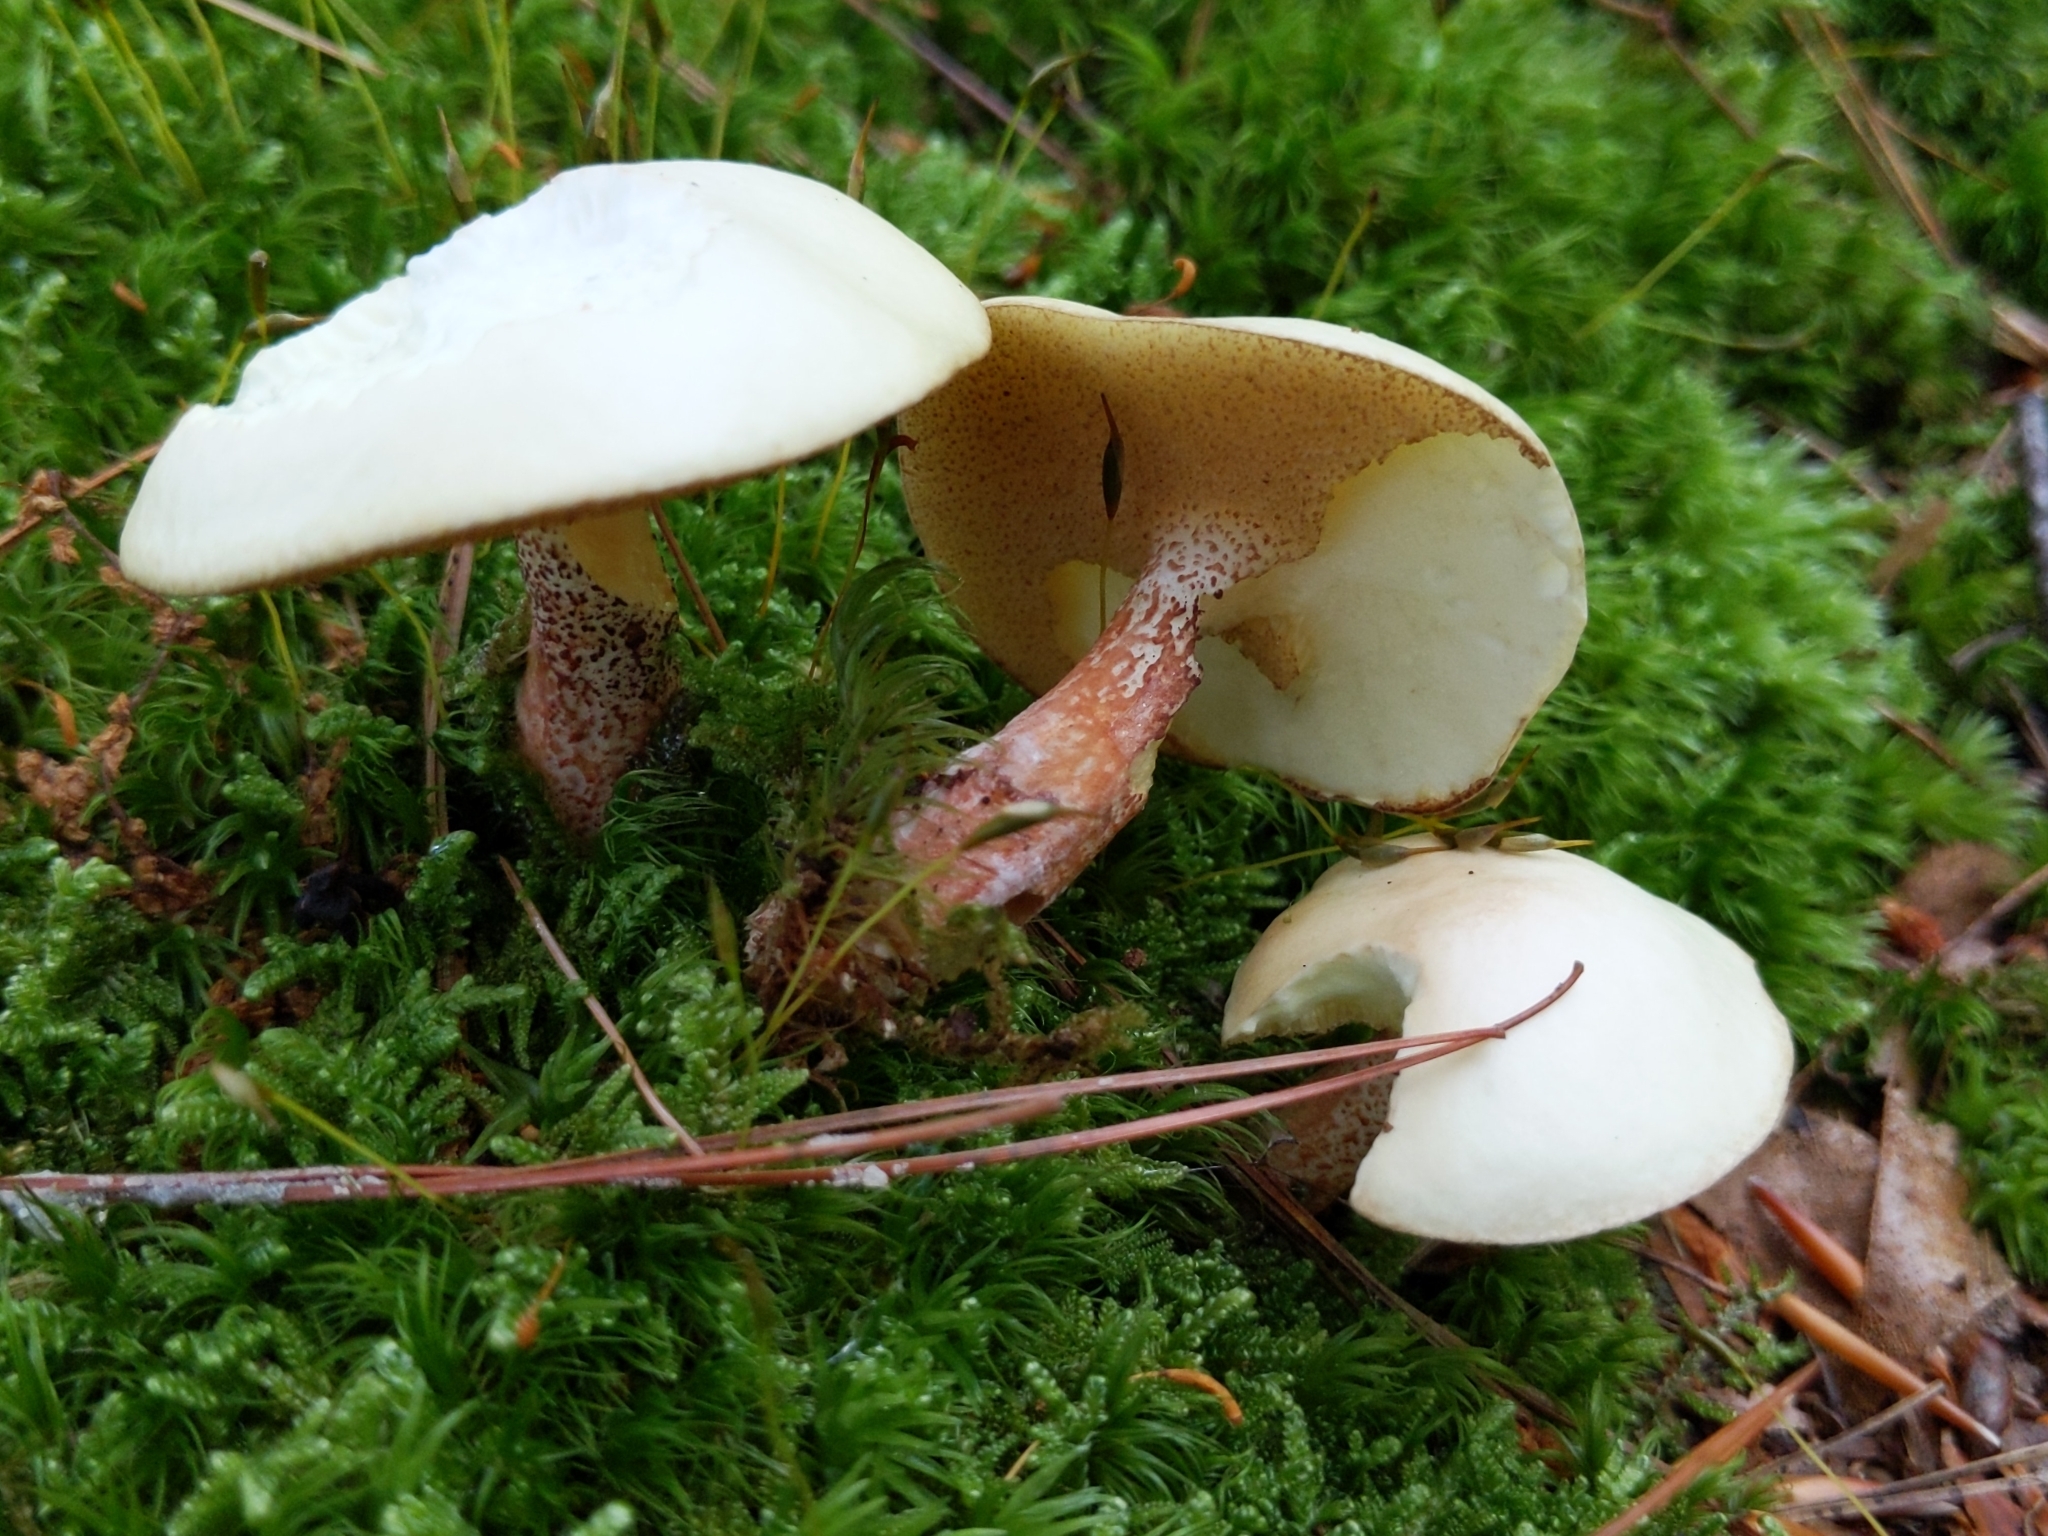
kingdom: Fungi
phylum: Basidiomycota
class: Agaricomycetes
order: Boletales
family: Suillaceae
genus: Suillus
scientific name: Suillus placidus
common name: Slippery white bolete
